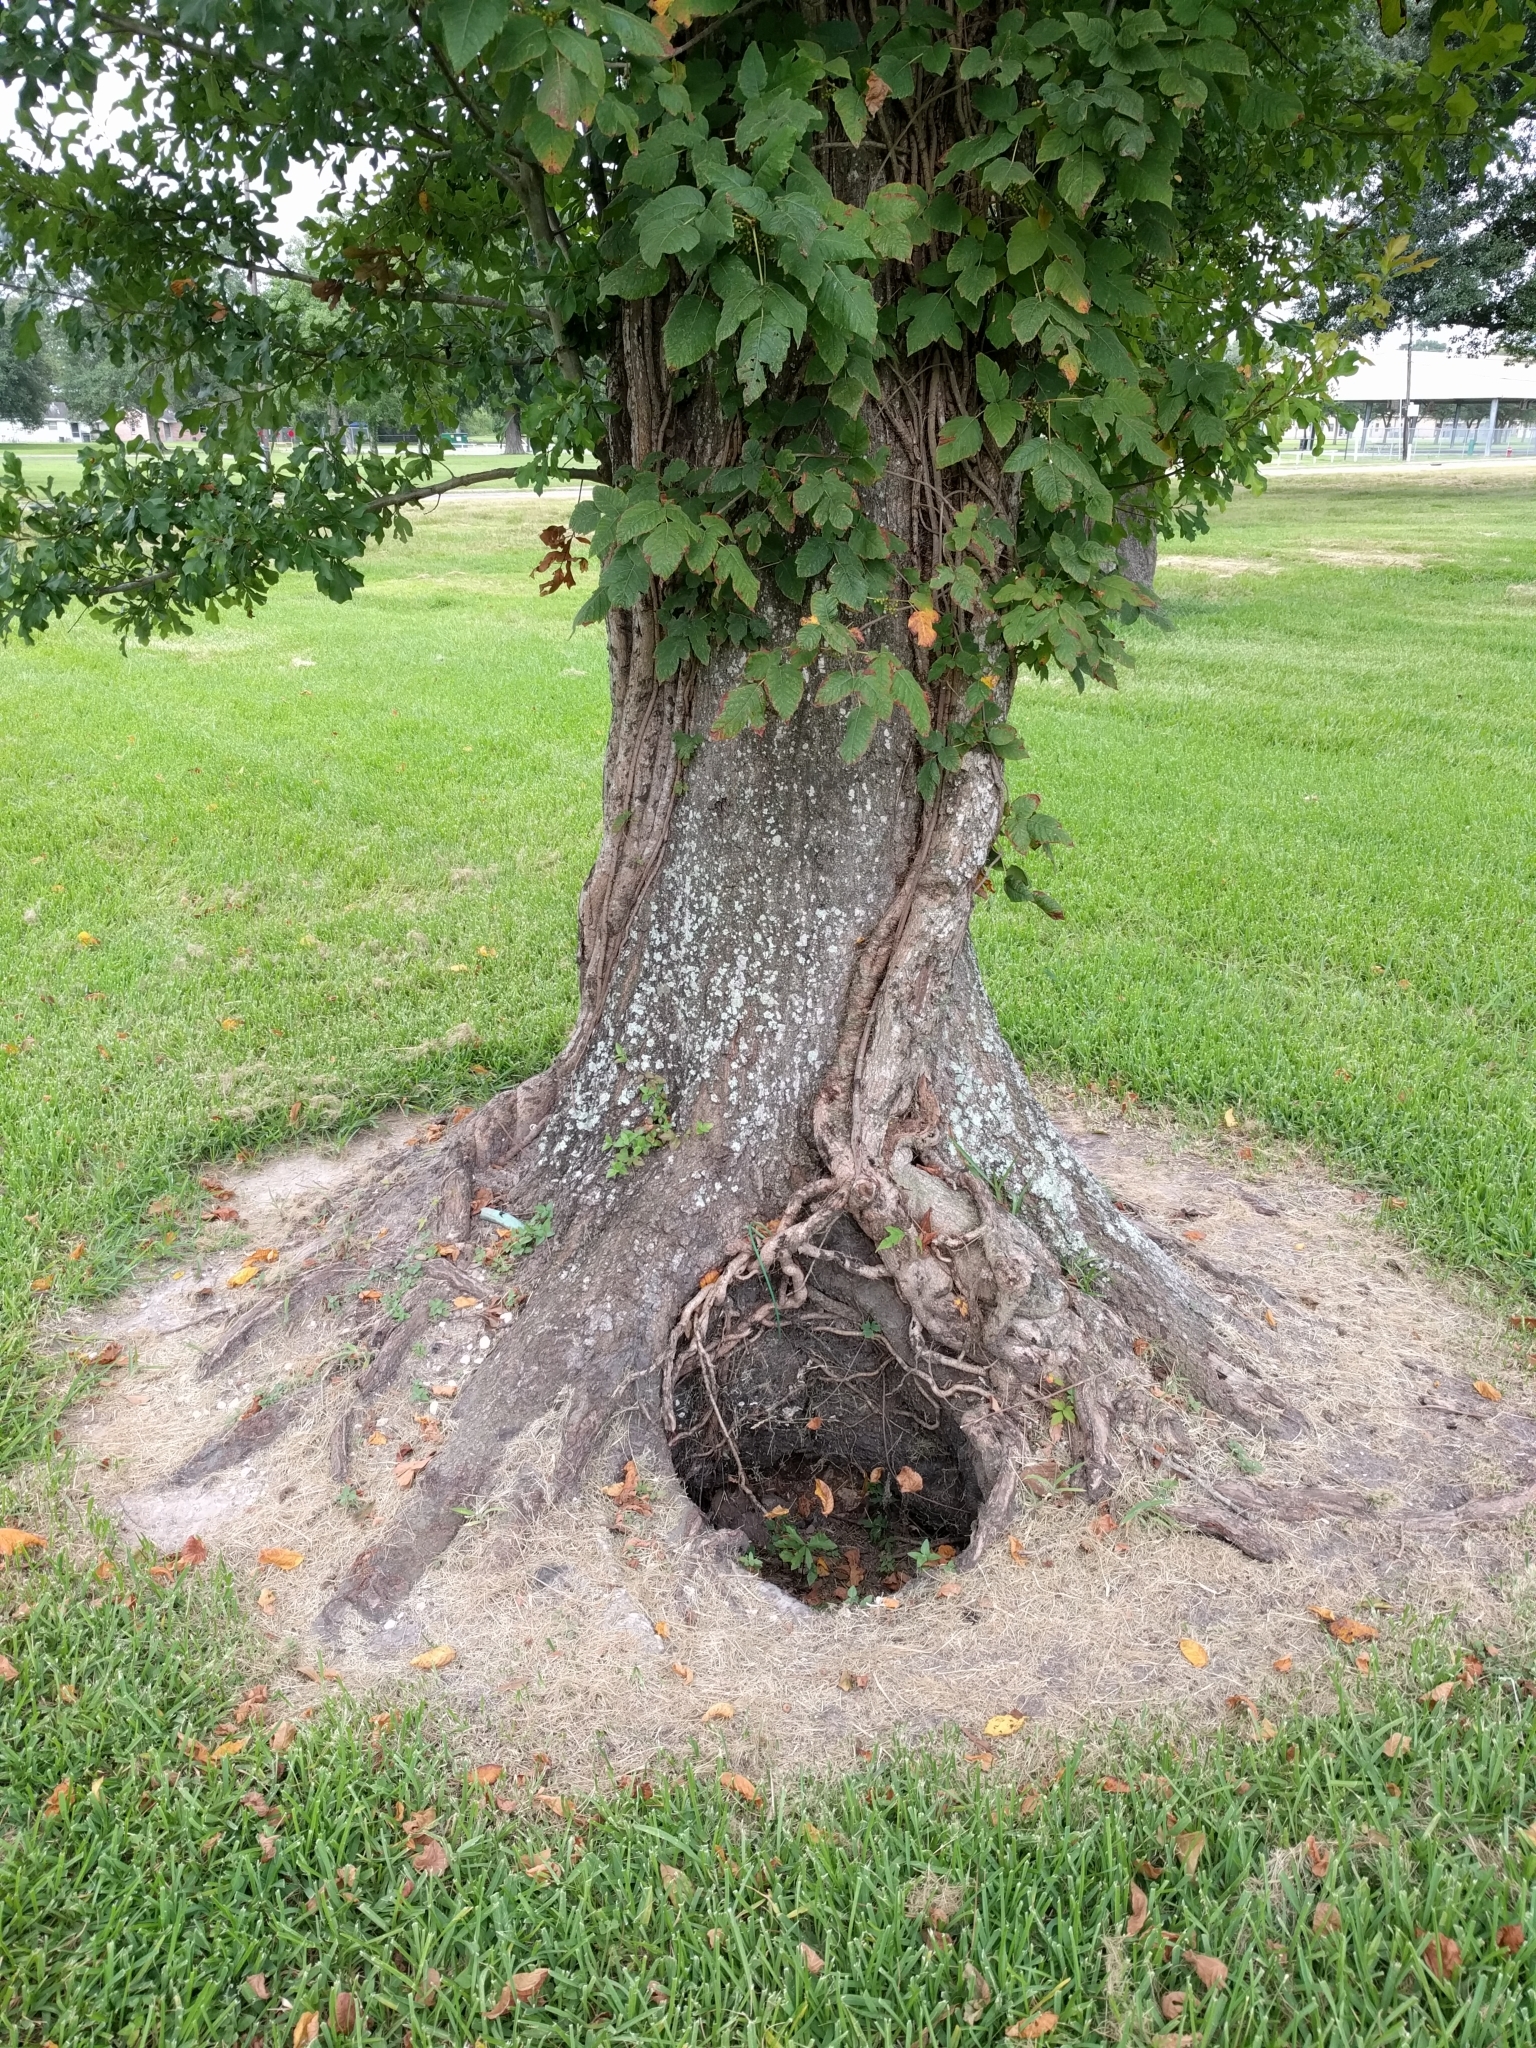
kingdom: Plantae
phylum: Tracheophyta
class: Magnoliopsida
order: Fagales
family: Fagaceae
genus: Quercus
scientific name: Quercus nigra
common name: Water oak
